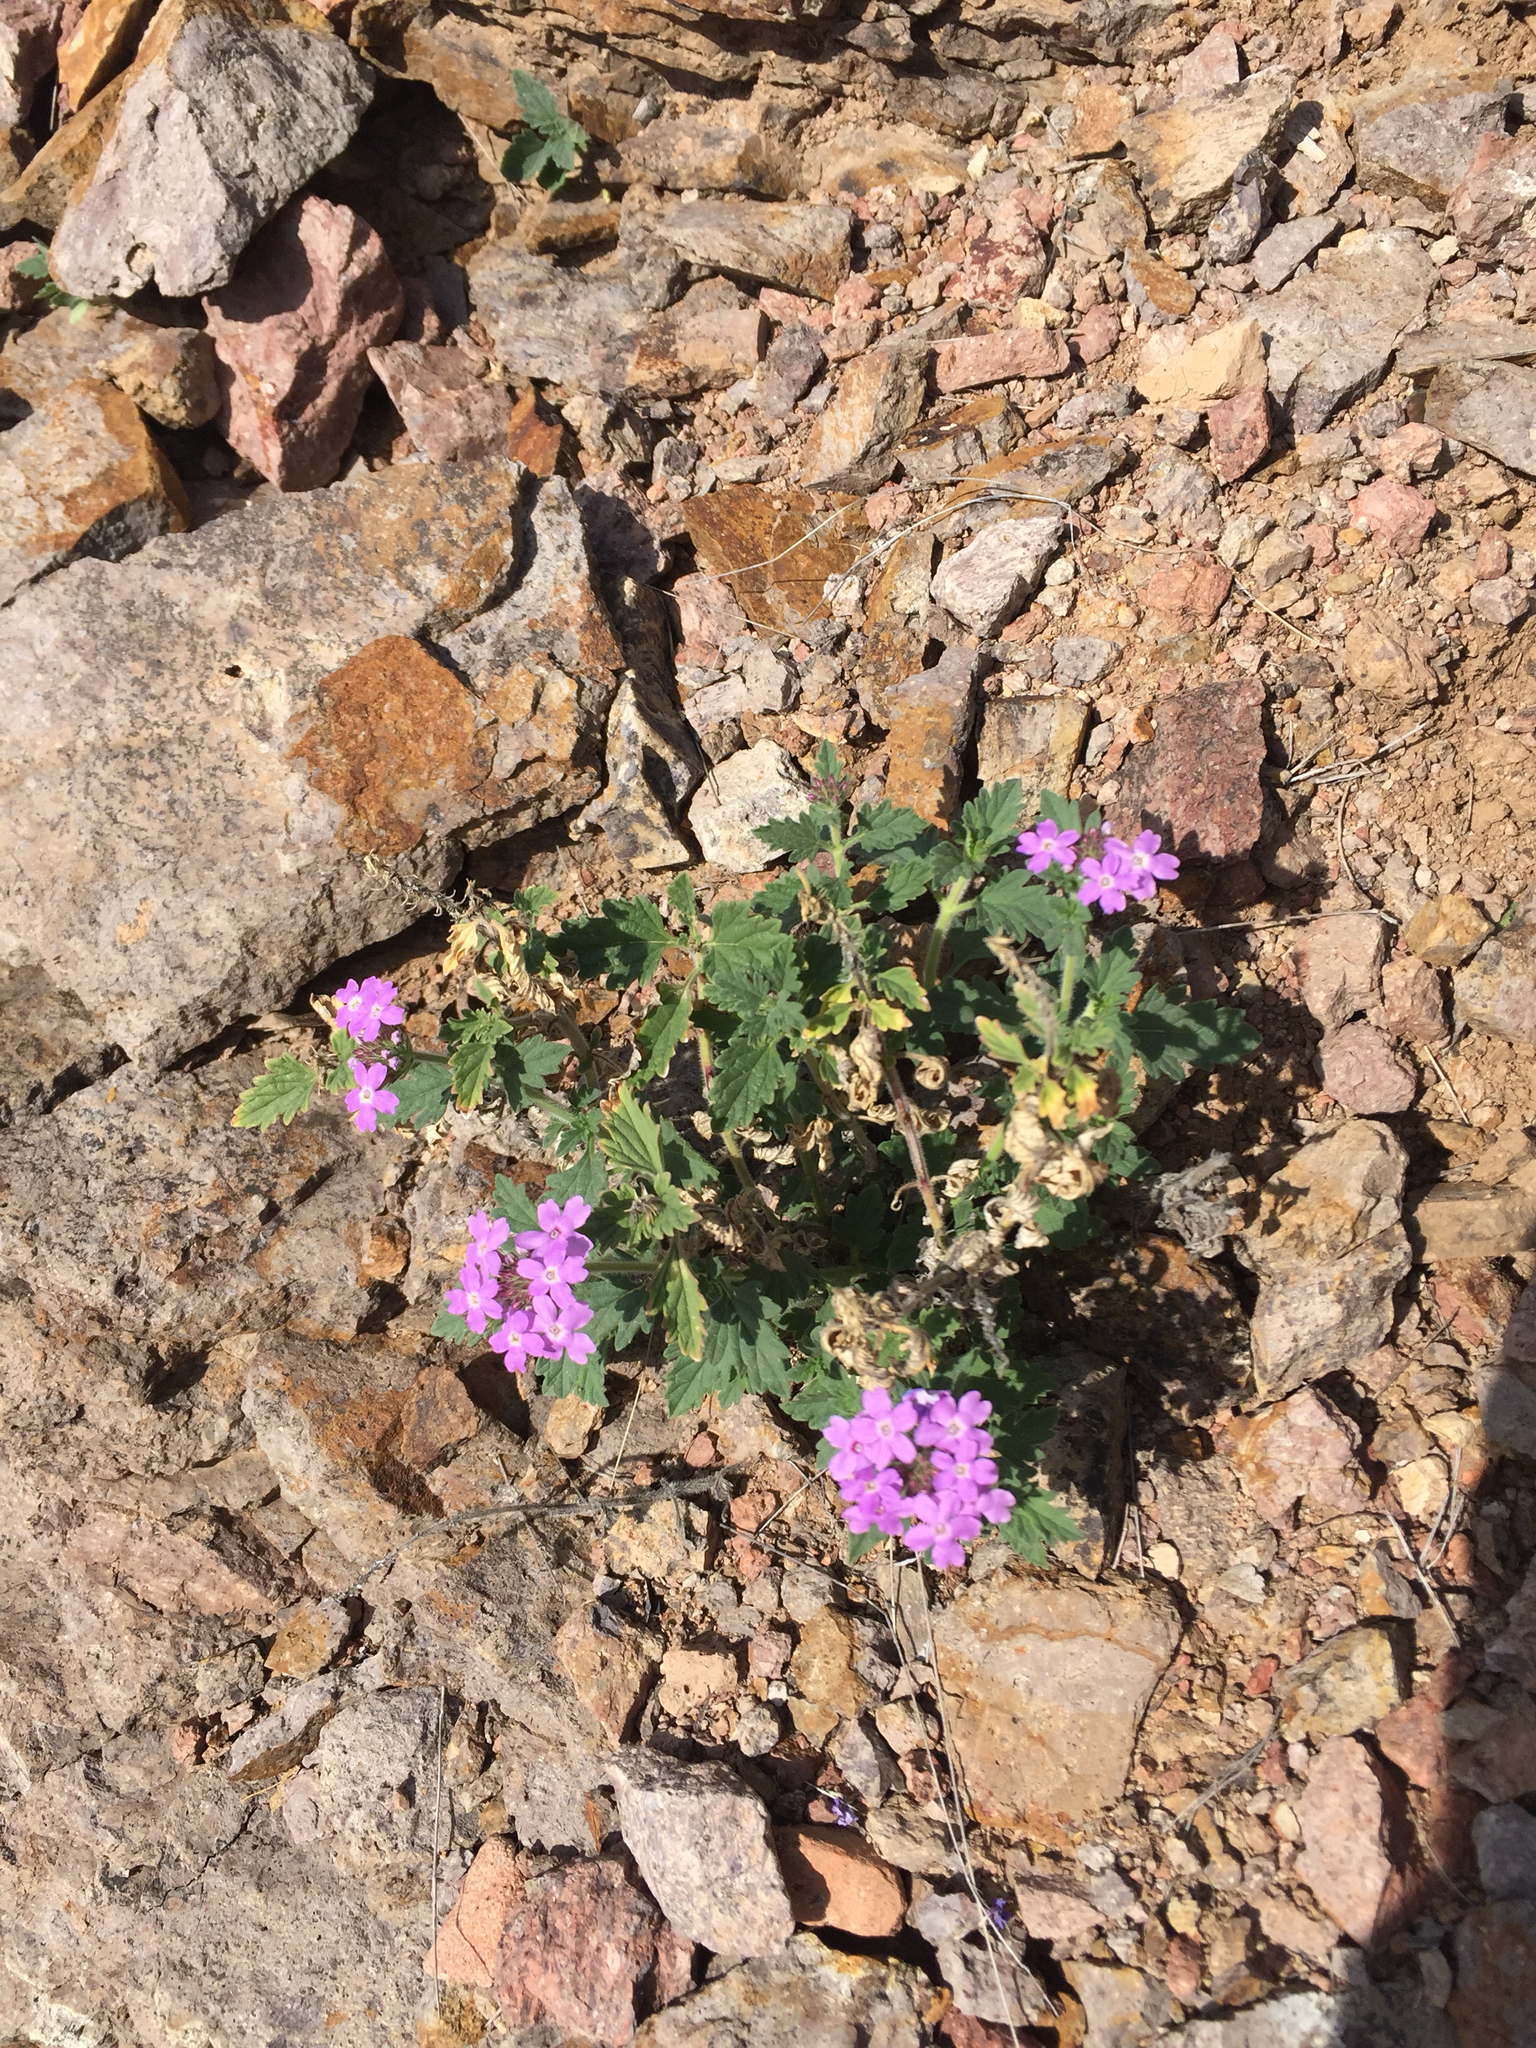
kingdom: Plantae
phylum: Tracheophyta
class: Magnoliopsida
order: Lamiales
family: Verbenaceae
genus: Verbena
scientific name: Verbena gooddingii
